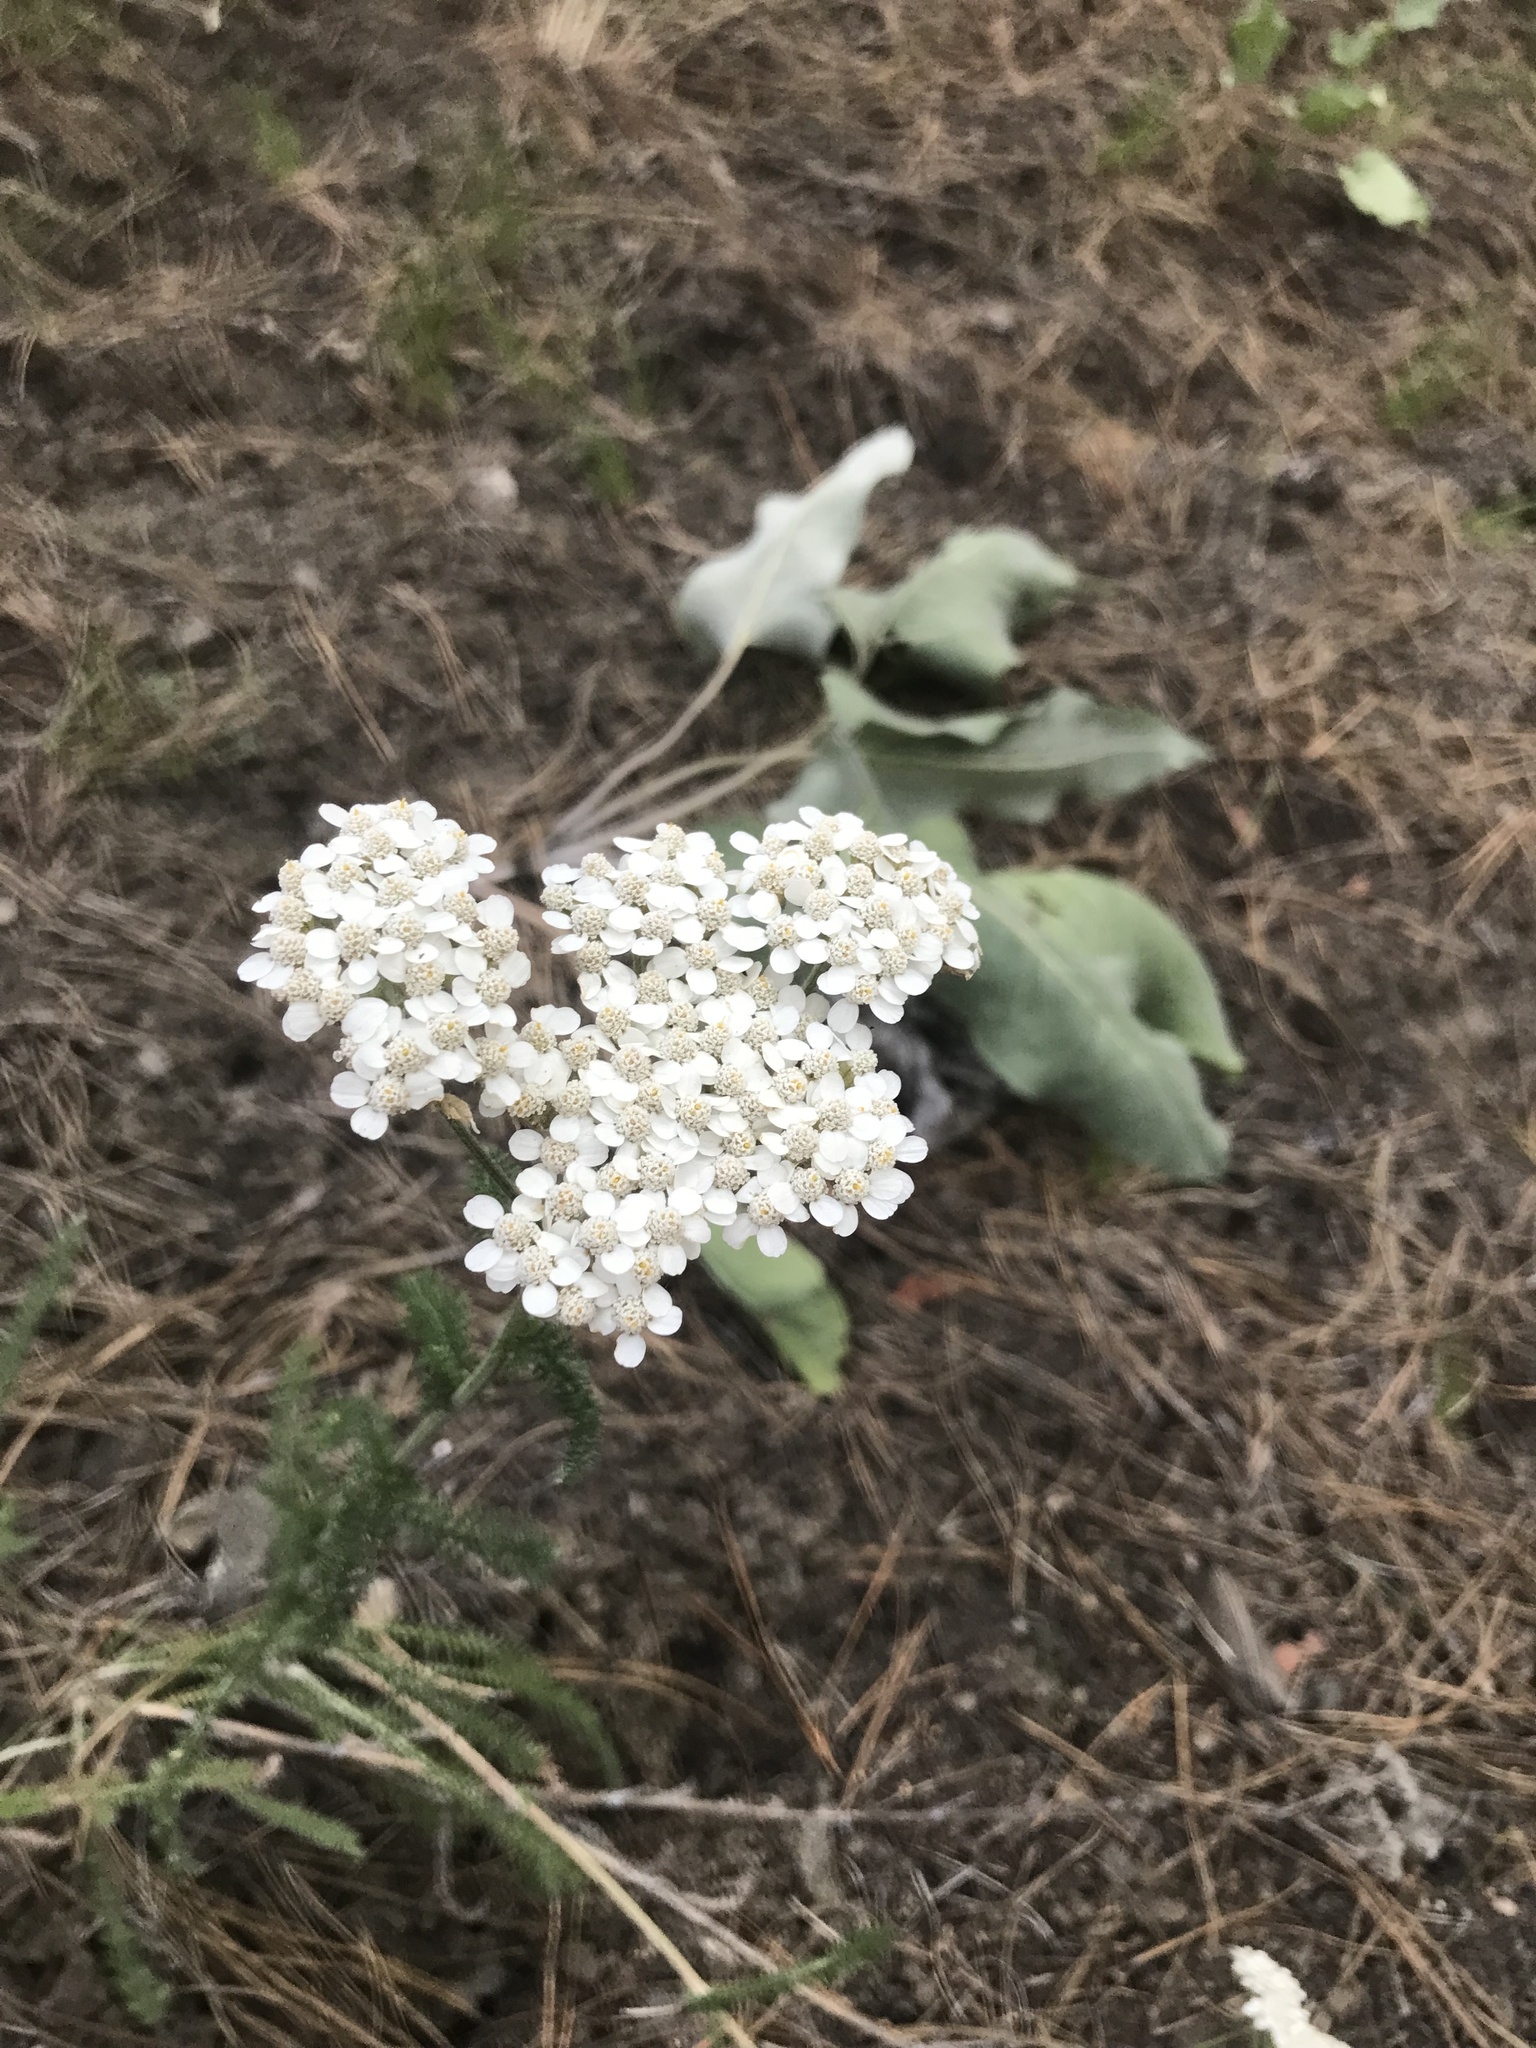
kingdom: Plantae
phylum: Tracheophyta
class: Magnoliopsida
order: Asterales
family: Asteraceae
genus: Achillea
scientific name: Achillea millefolium
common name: Yarrow
